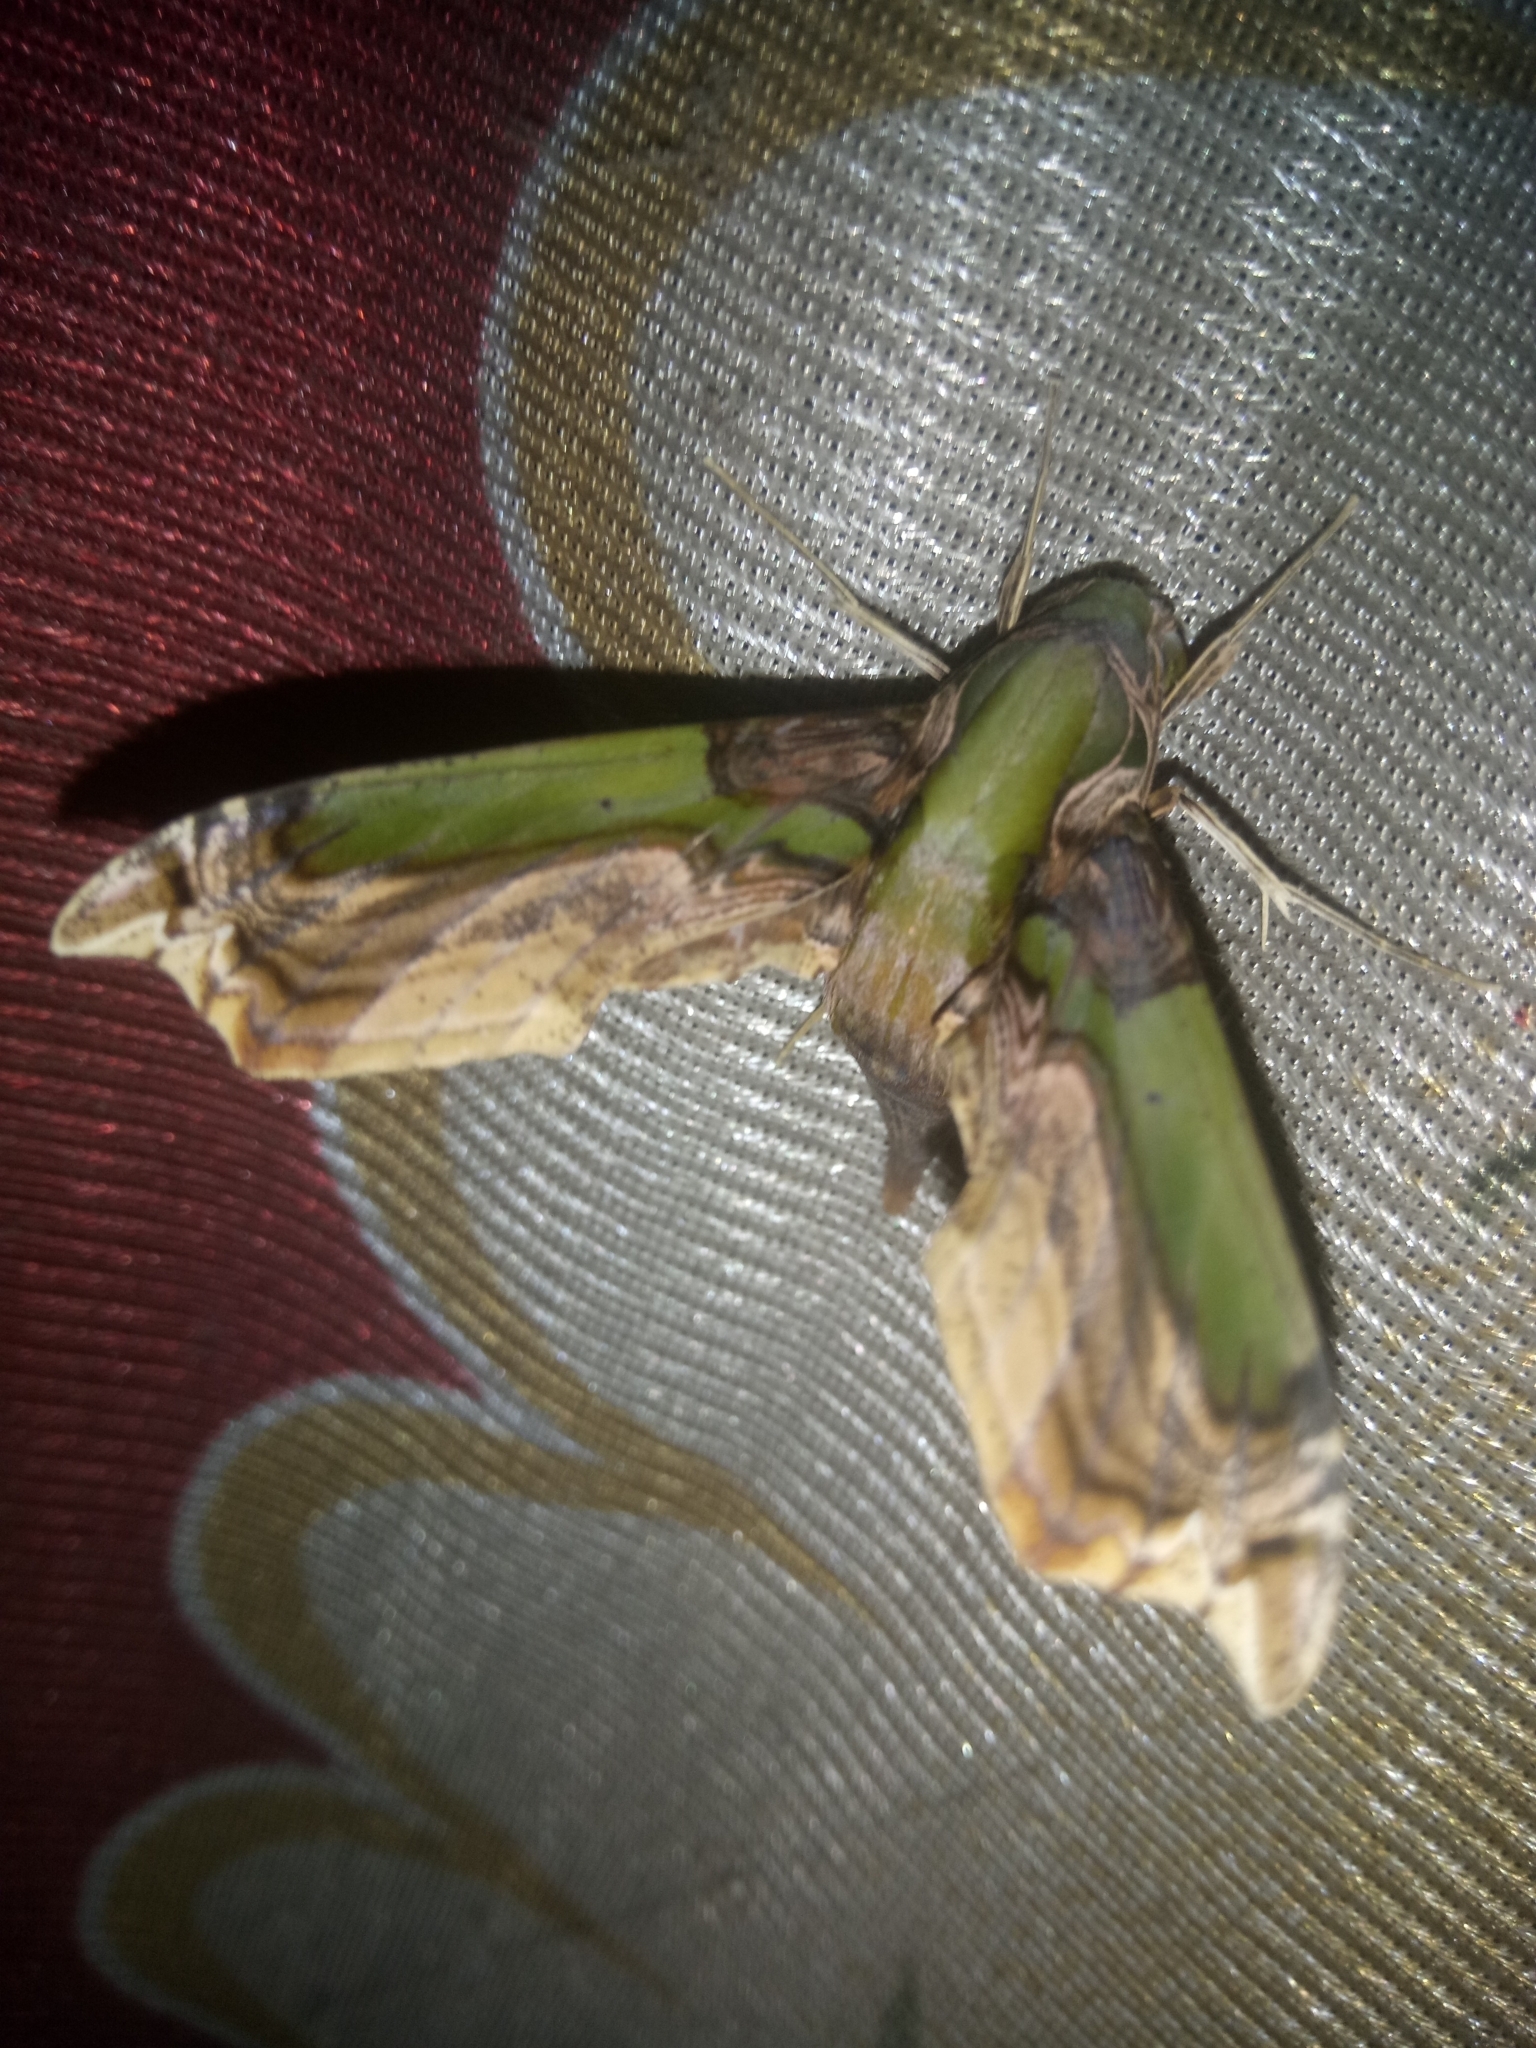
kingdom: Animalia
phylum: Arthropoda
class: Insecta
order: Lepidoptera
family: Sphingidae
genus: Eupanacra
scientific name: Eupanacra busiris
